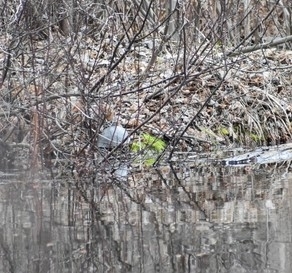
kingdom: Animalia
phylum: Chordata
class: Testudines
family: Emydidae
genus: Chrysemys
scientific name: Chrysemys picta
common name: Painted turtle
